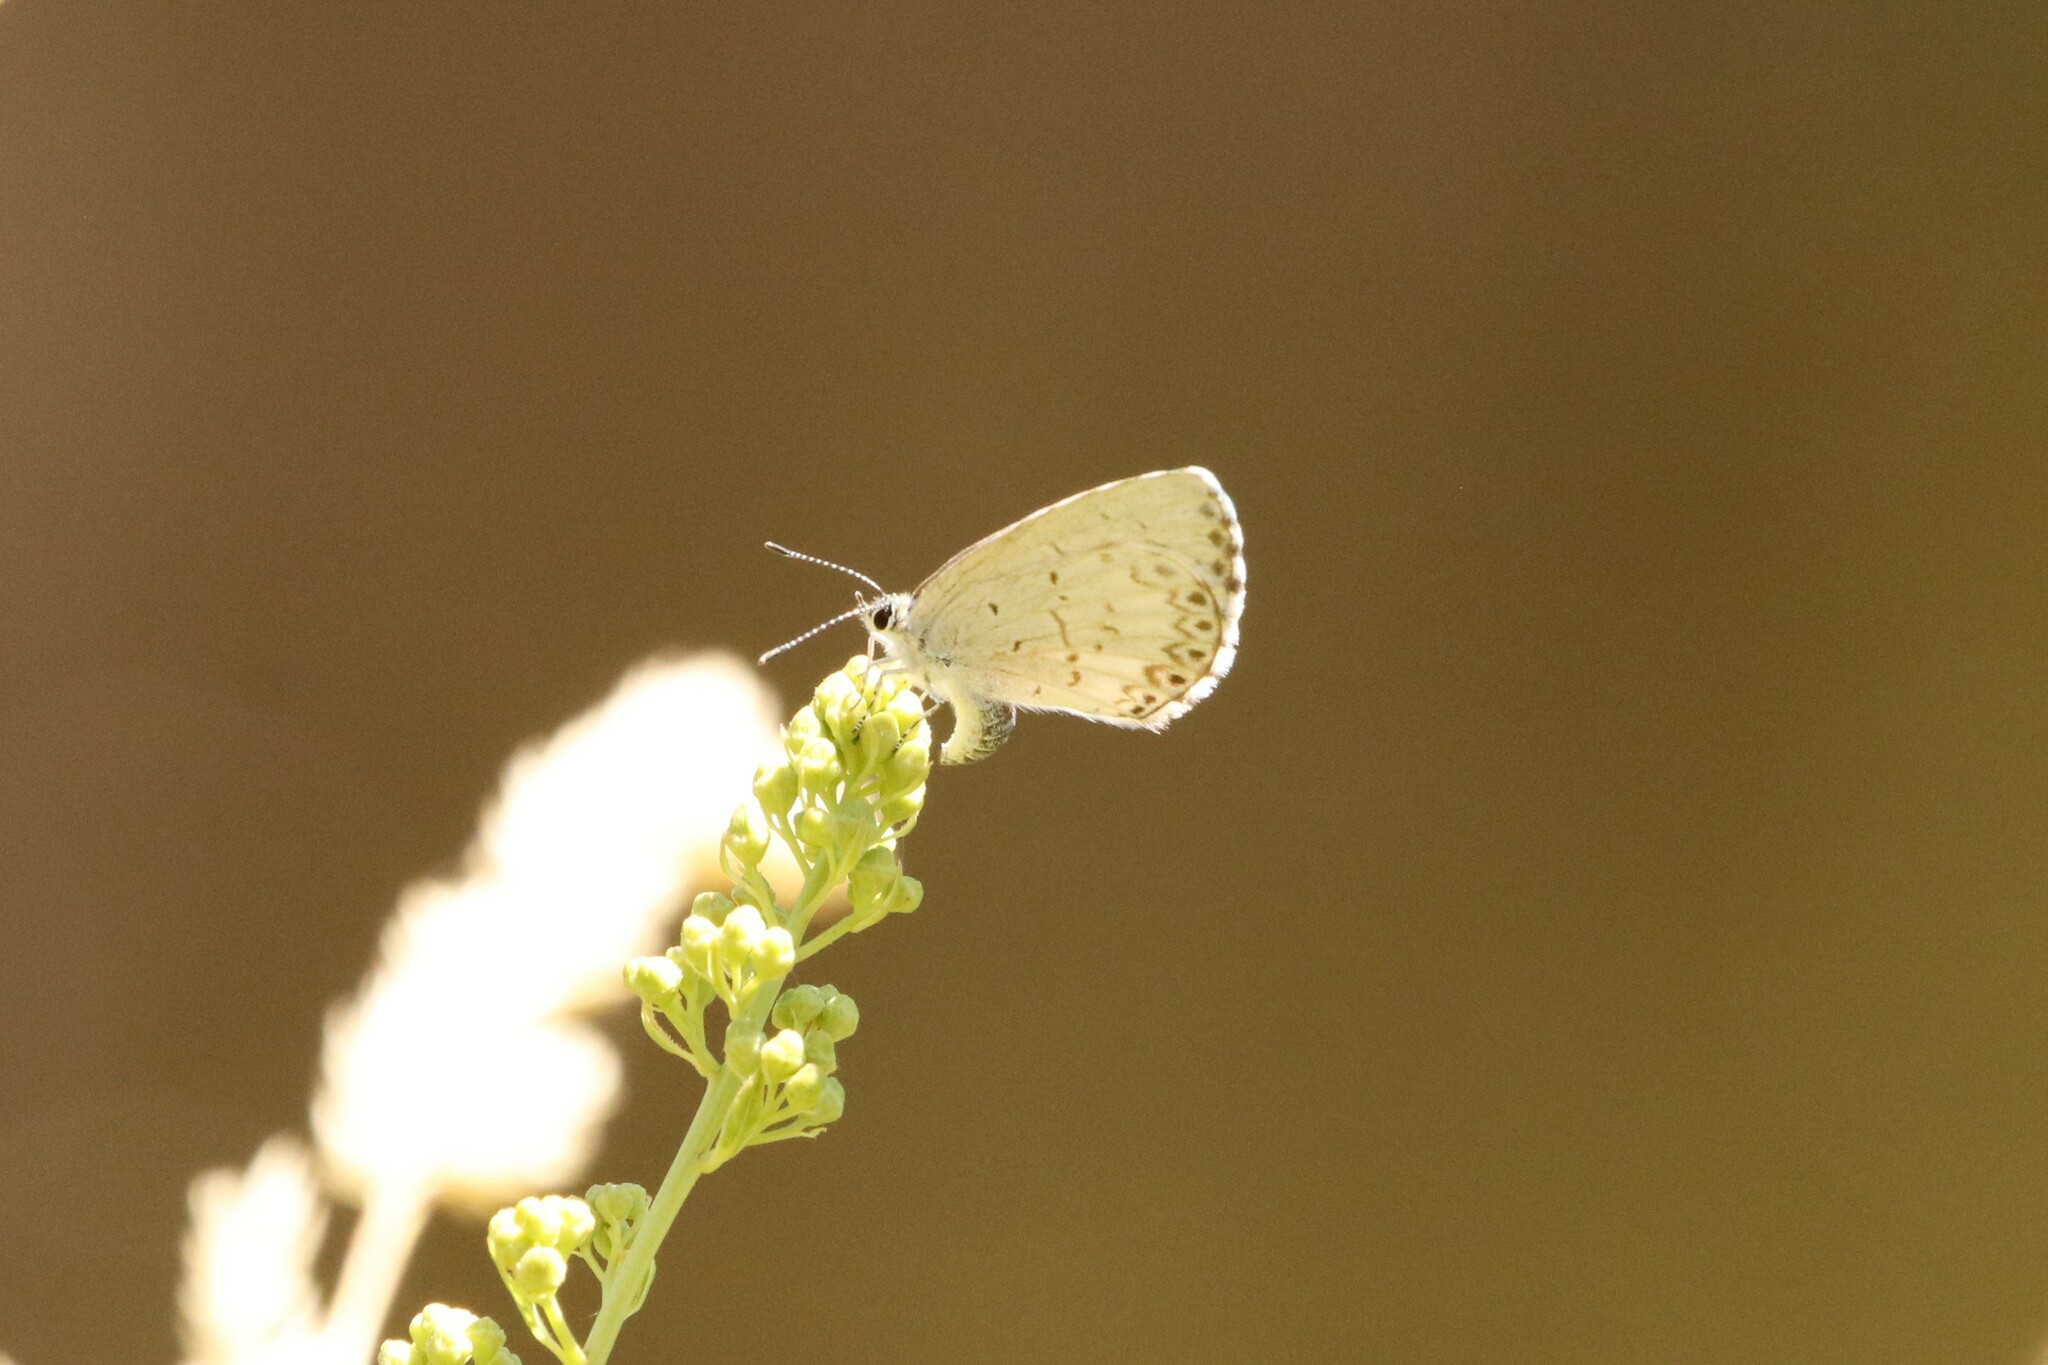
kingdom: Animalia
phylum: Arthropoda
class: Insecta
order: Lepidoptera
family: Lycaenidae
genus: Celastrina
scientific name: Celastrina lucia
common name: Lucia azure
